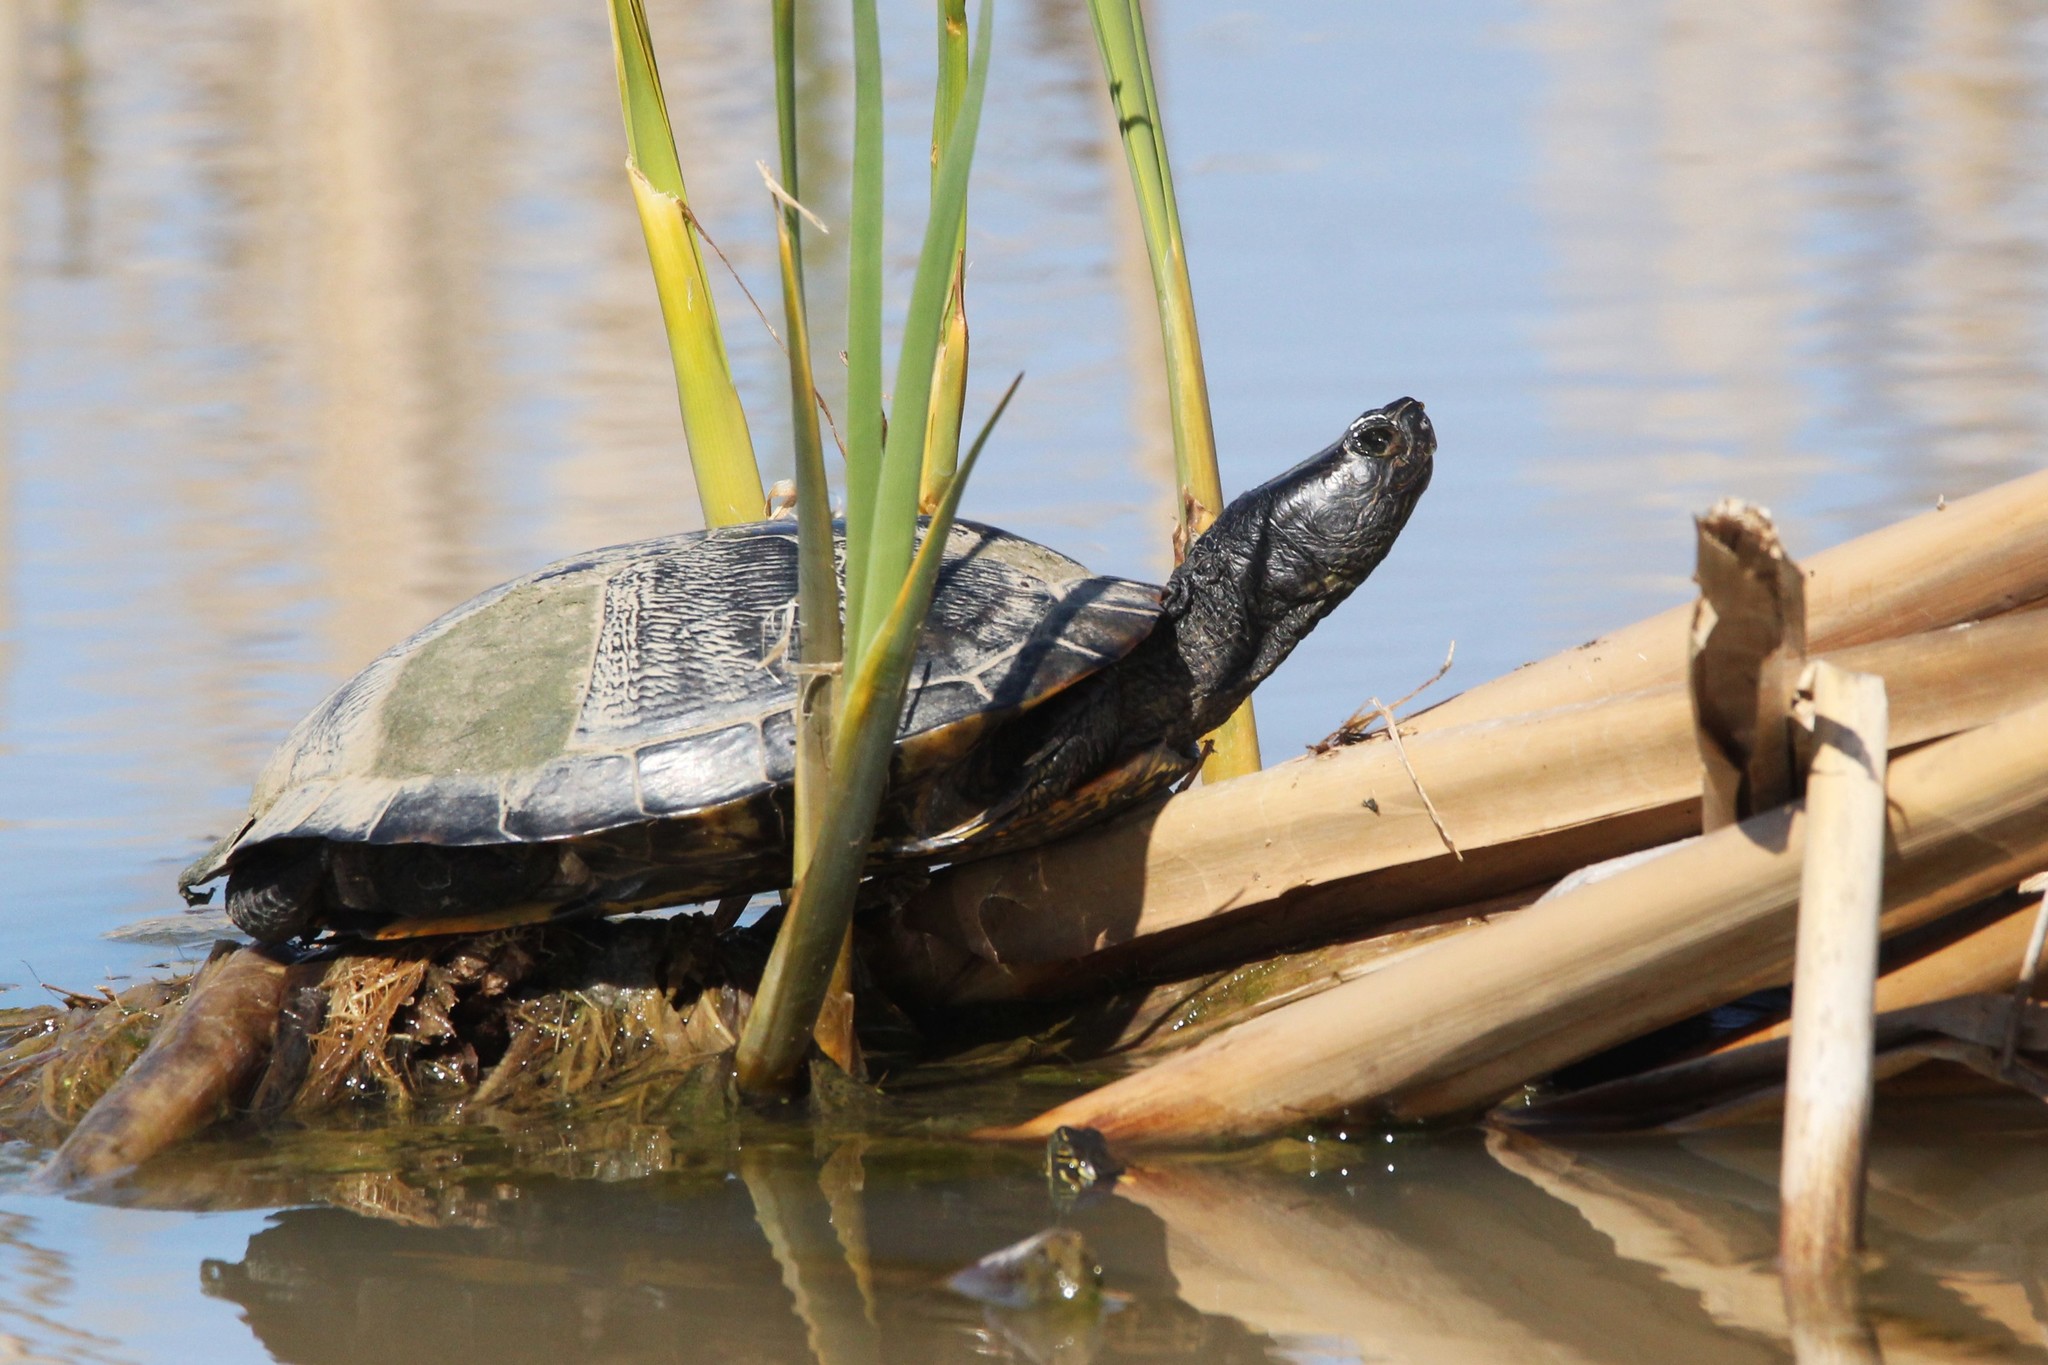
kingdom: Animalia
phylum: Chordata
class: Testudines
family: Emydidae
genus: Trachemys
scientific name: Trachemys scripta
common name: Slider
